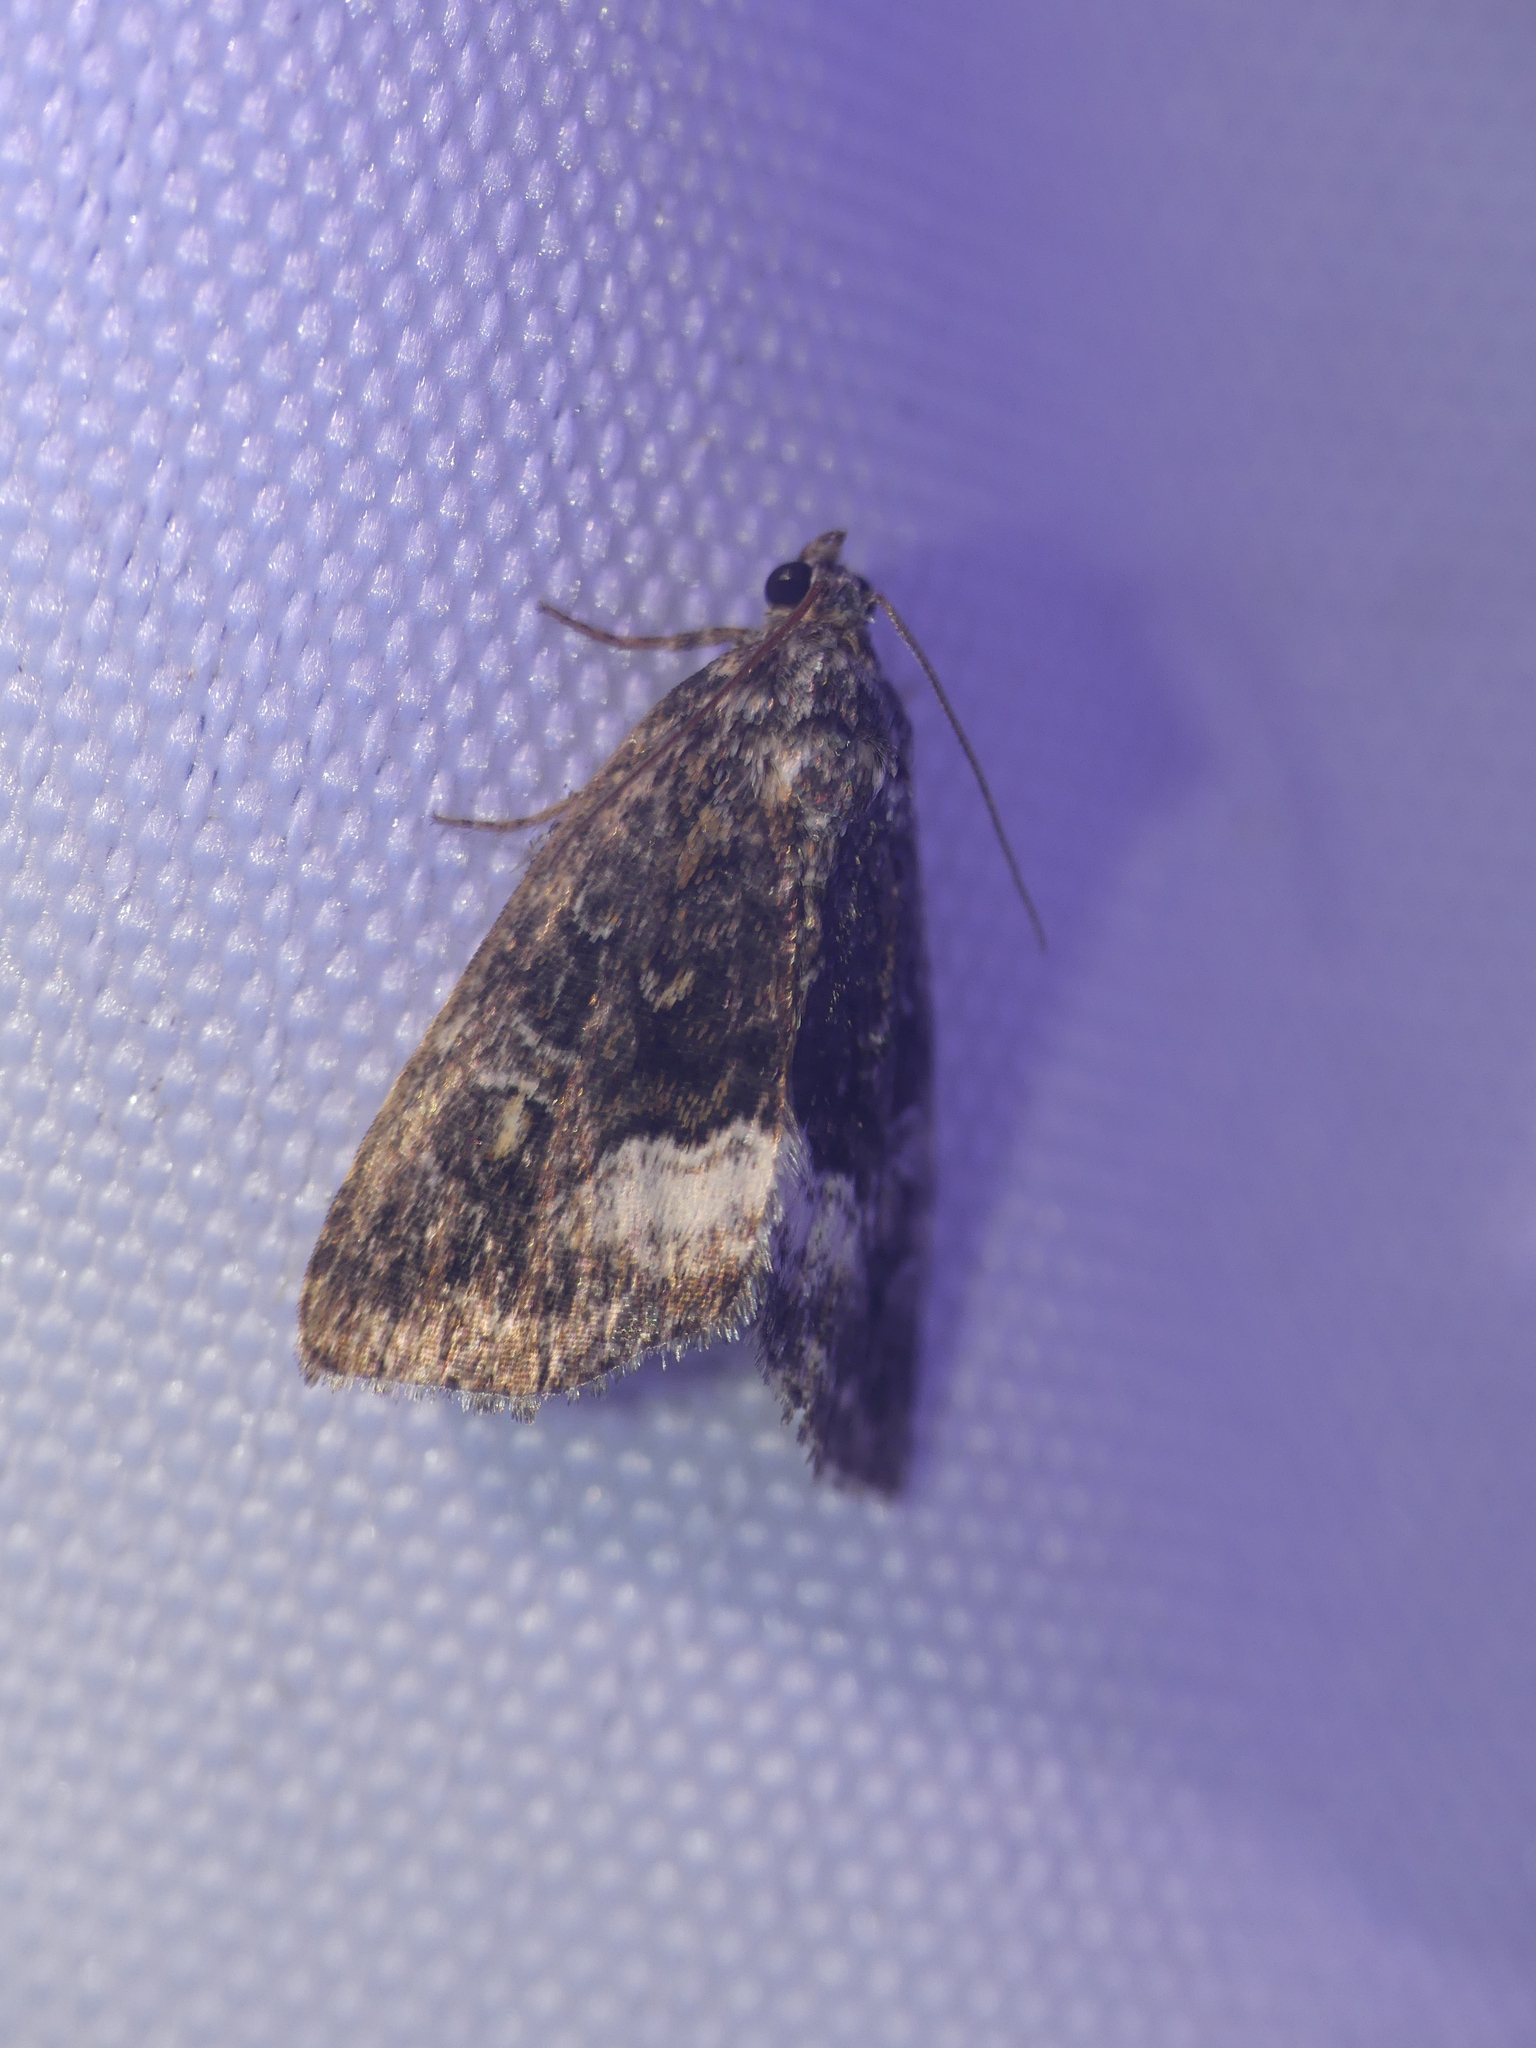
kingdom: Animalia
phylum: Arthropoda
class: Insecta
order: Lepidoptera
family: Noctuidae
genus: Deltote
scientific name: Deltote pygarga
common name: Marbled white spot
